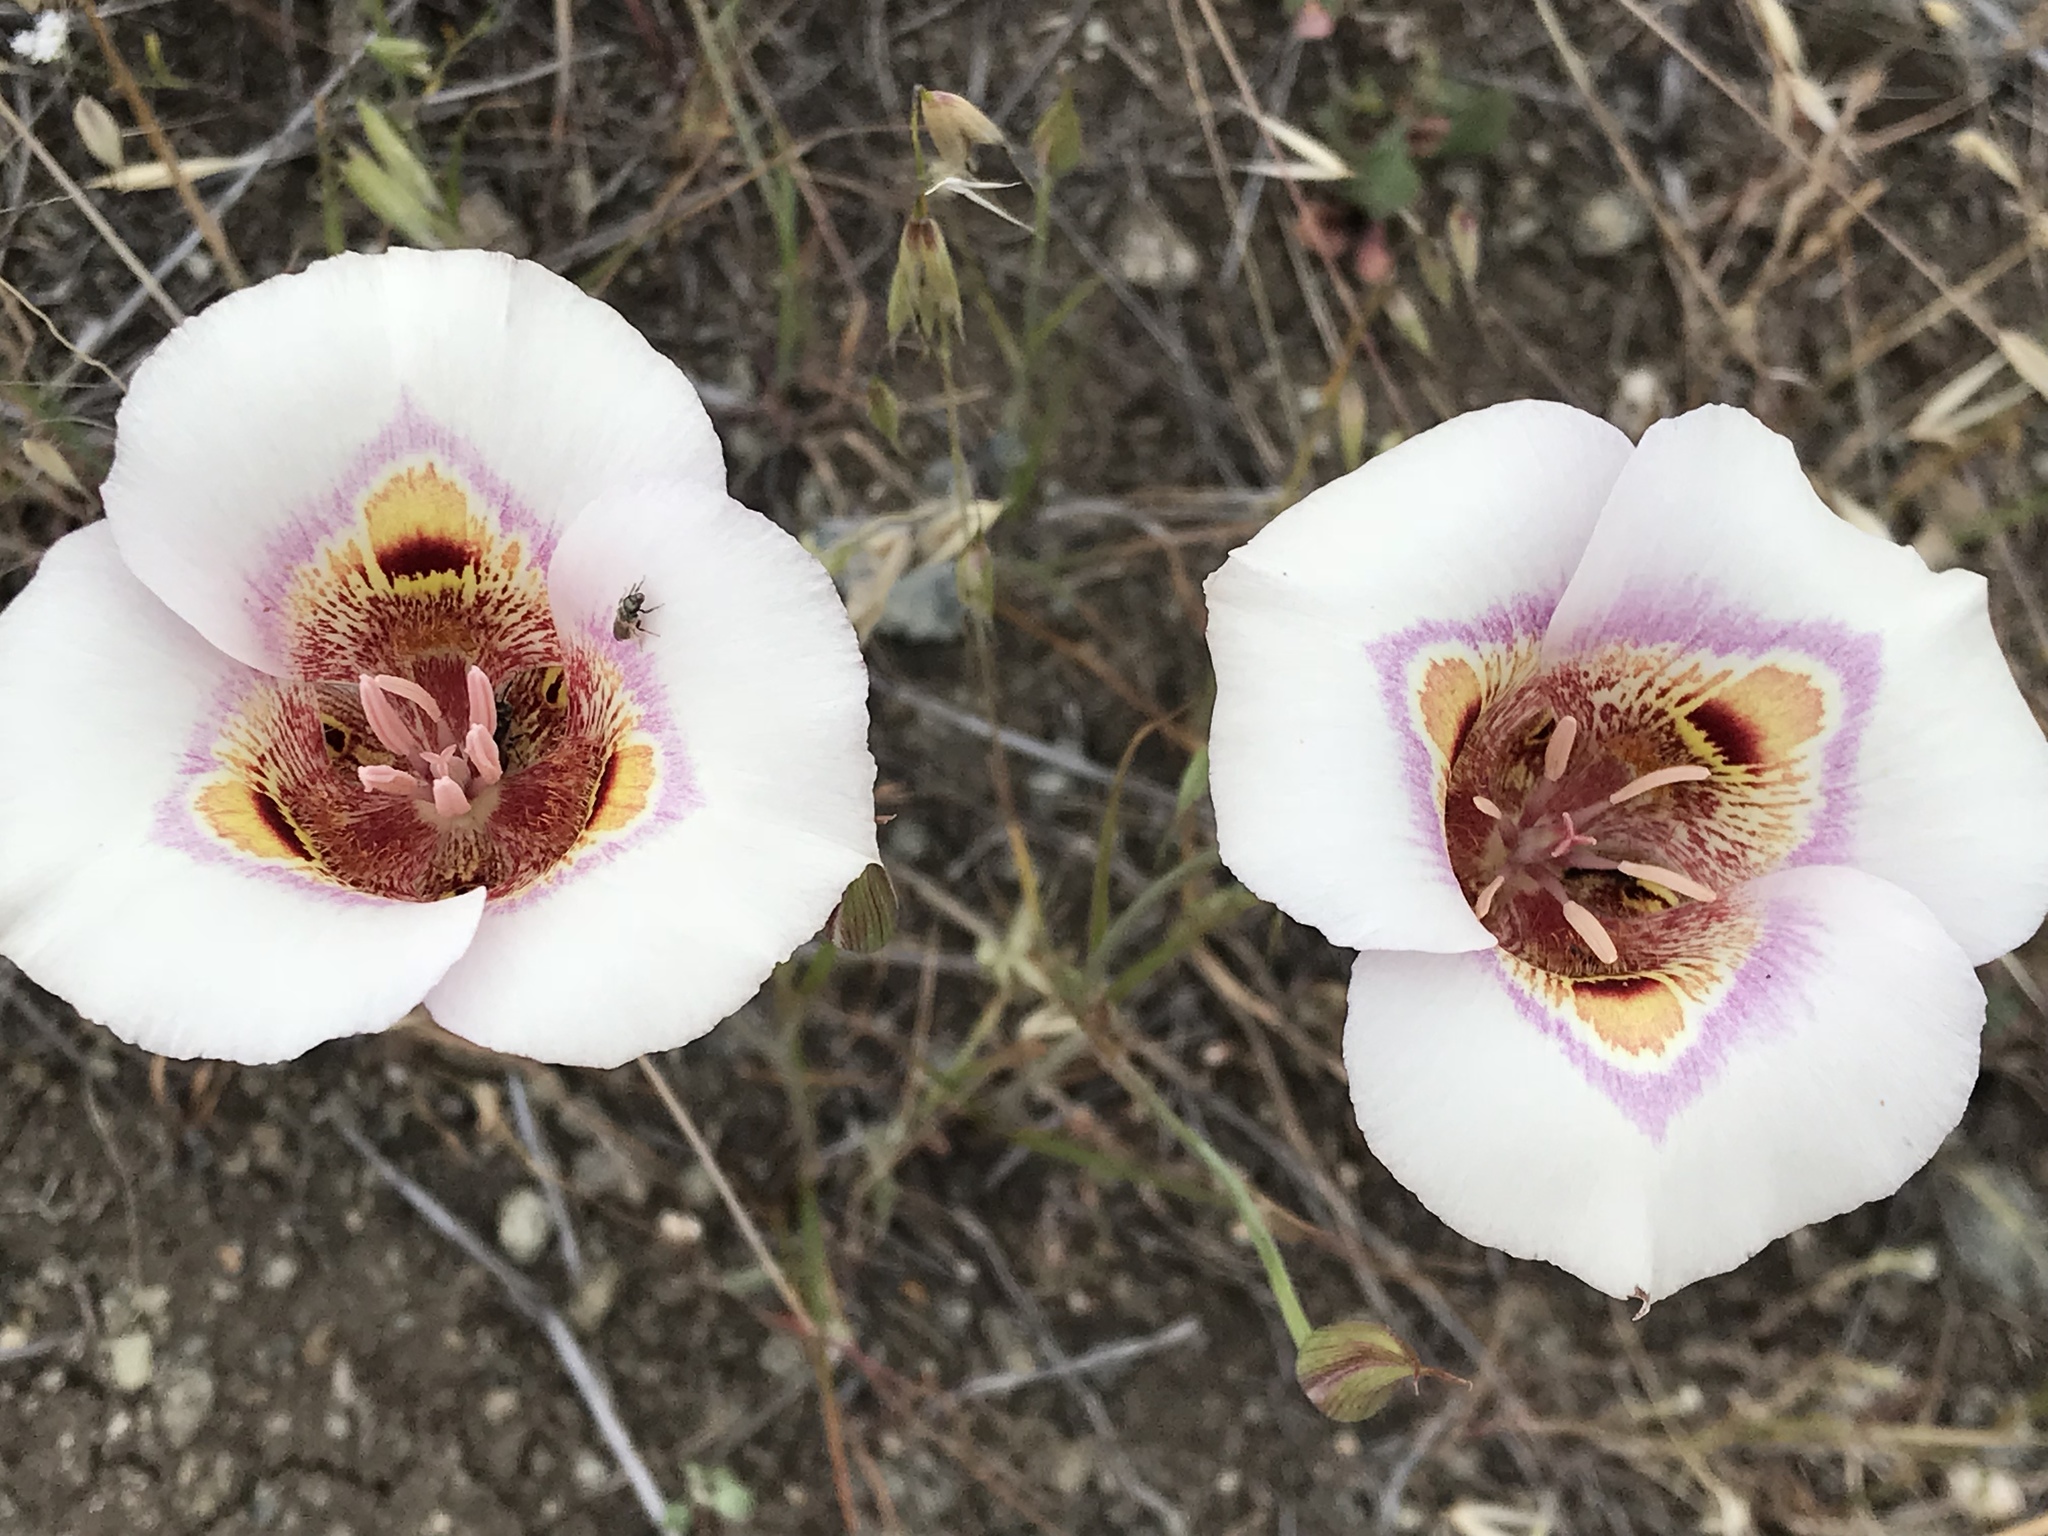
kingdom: Plantae
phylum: Tracheophyta
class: Liliopsida
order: Liliales
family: Liliaceae
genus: Calochortus
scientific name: Calochortus argillosus
